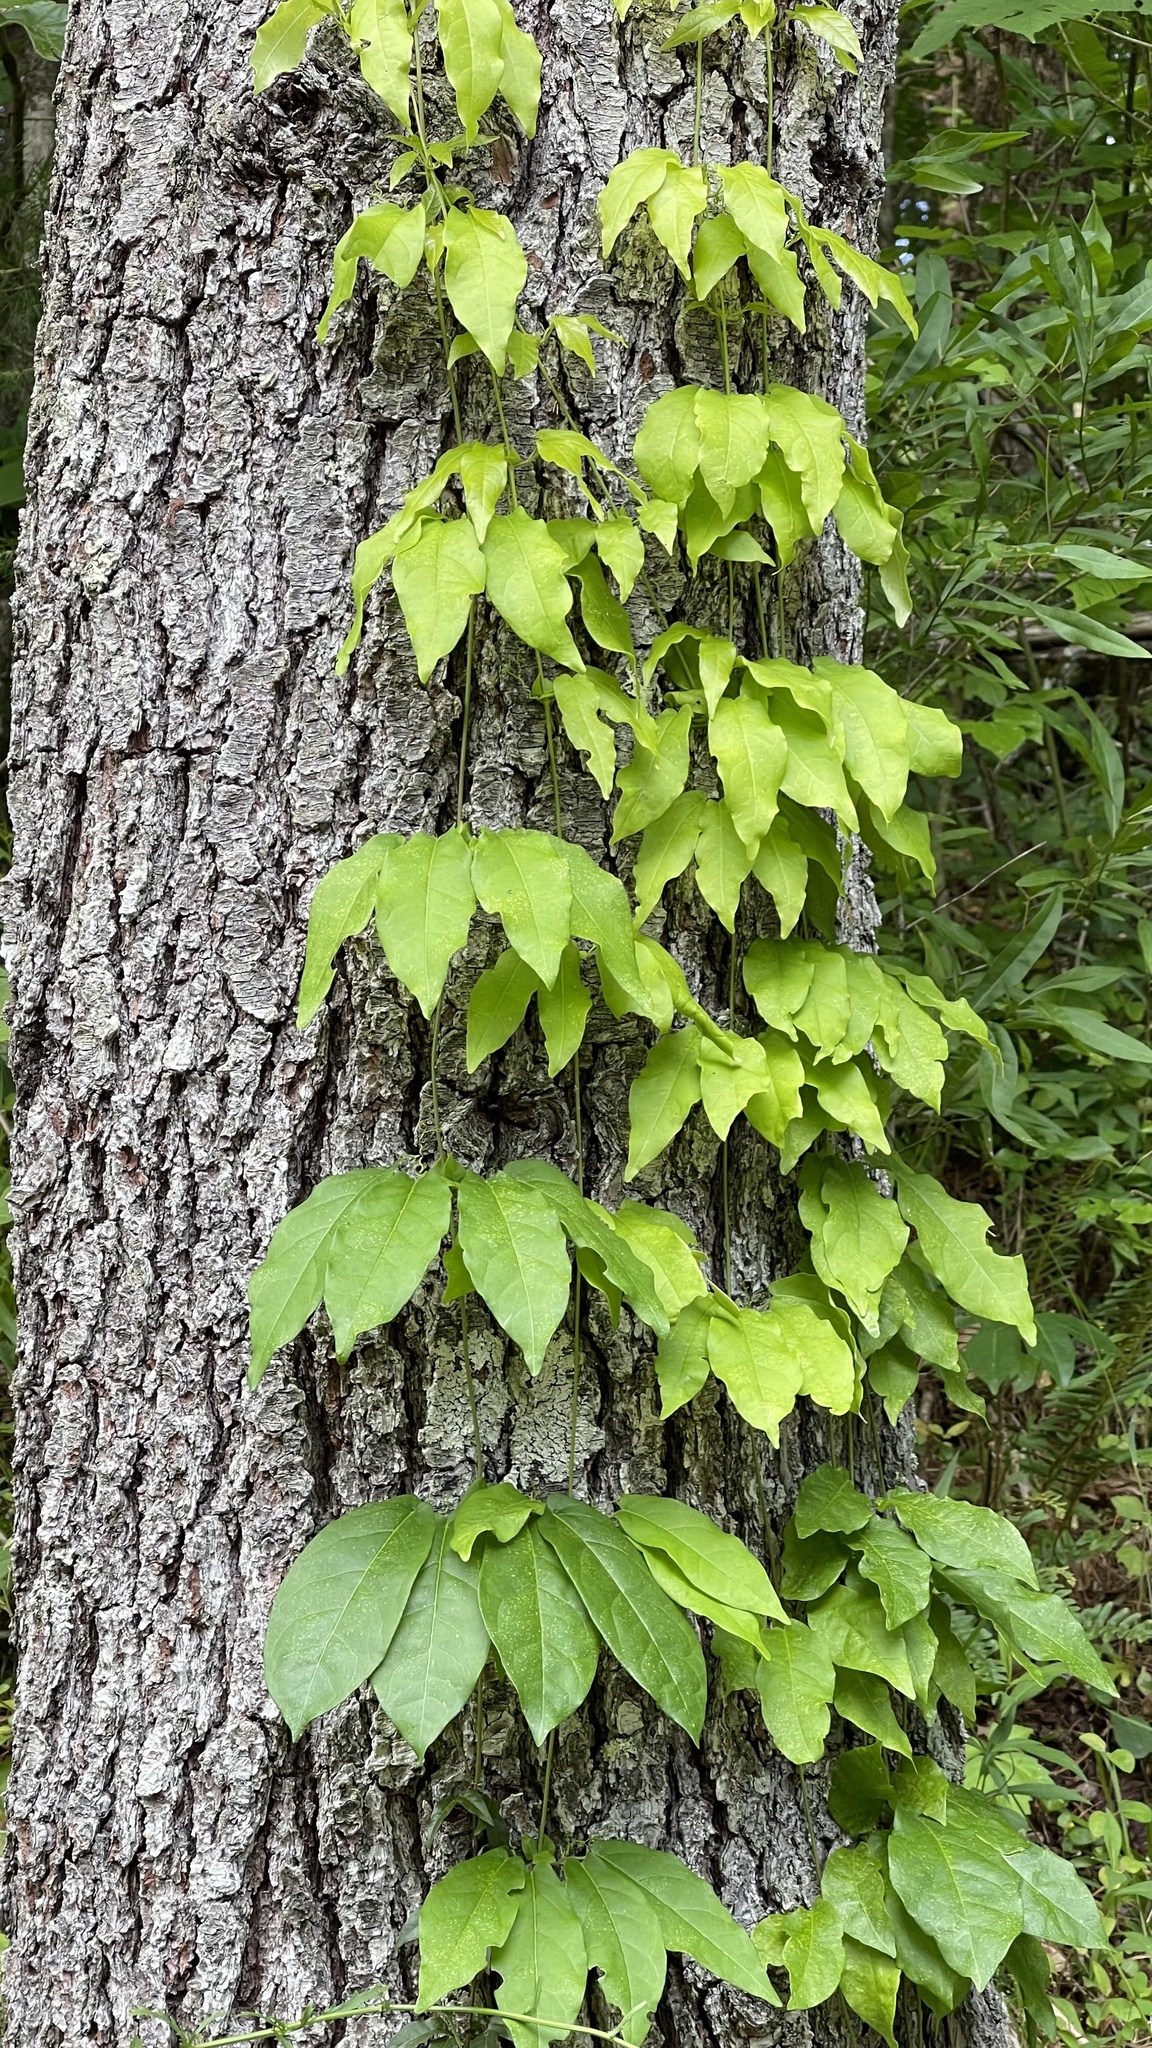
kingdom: Plantae
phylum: Tracheophyta
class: Magnoliopsida
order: Lamiales
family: Bignoniaceae
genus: Bignonia
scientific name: Bignonia capreolata
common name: Crossvine
